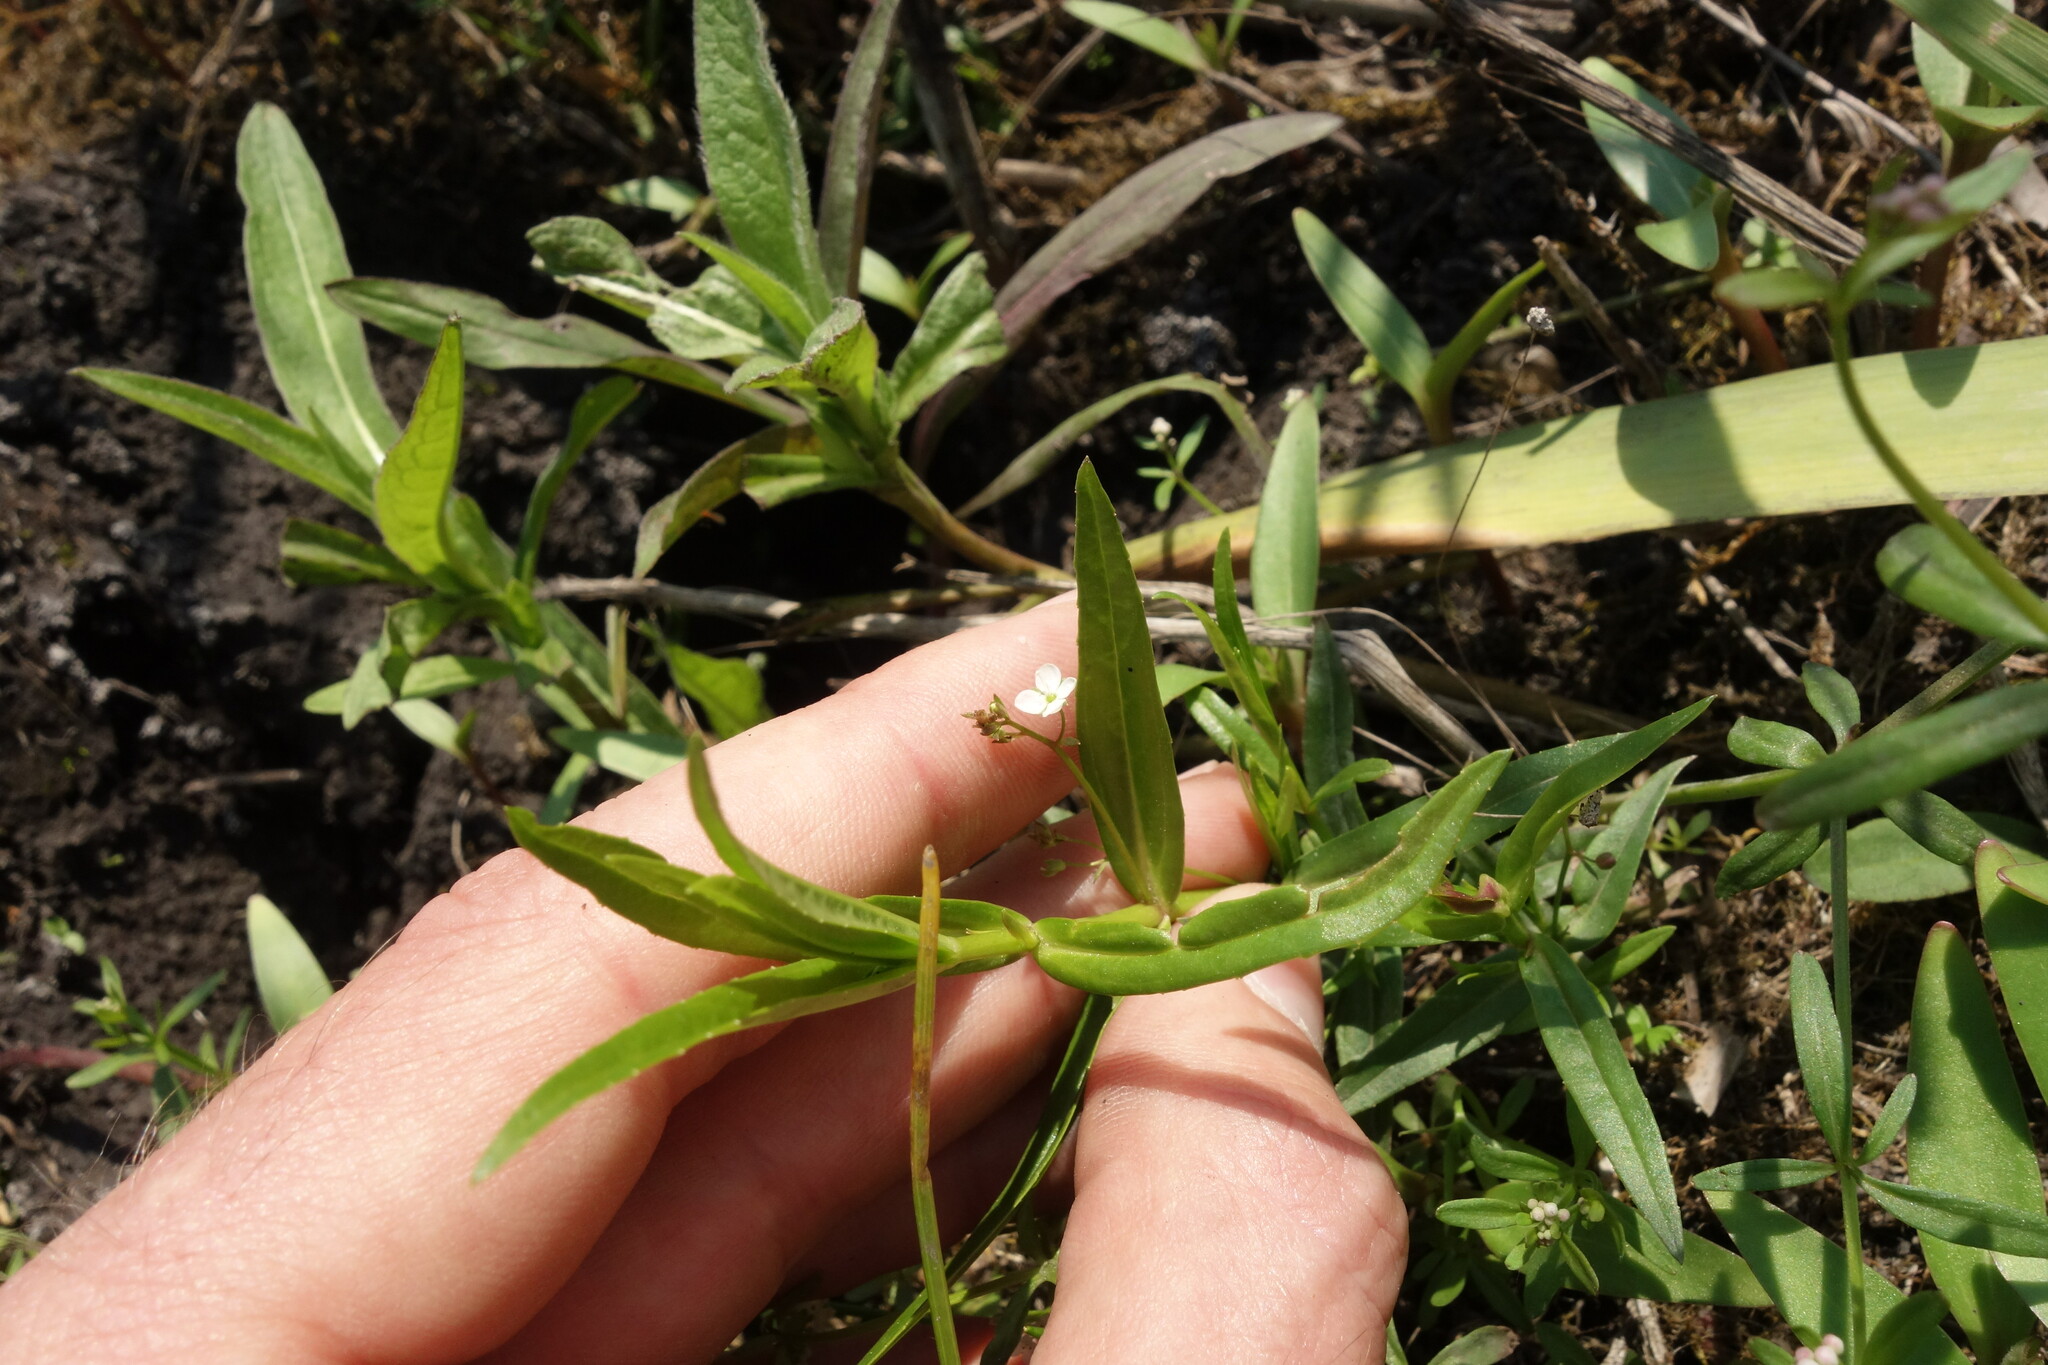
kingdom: Plantae
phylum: Tracheophyta
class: Magnoliopsida
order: Lamiales
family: Plantaginaceae
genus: Veronica
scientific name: Veronica scutellata
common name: Marsh speedwell
